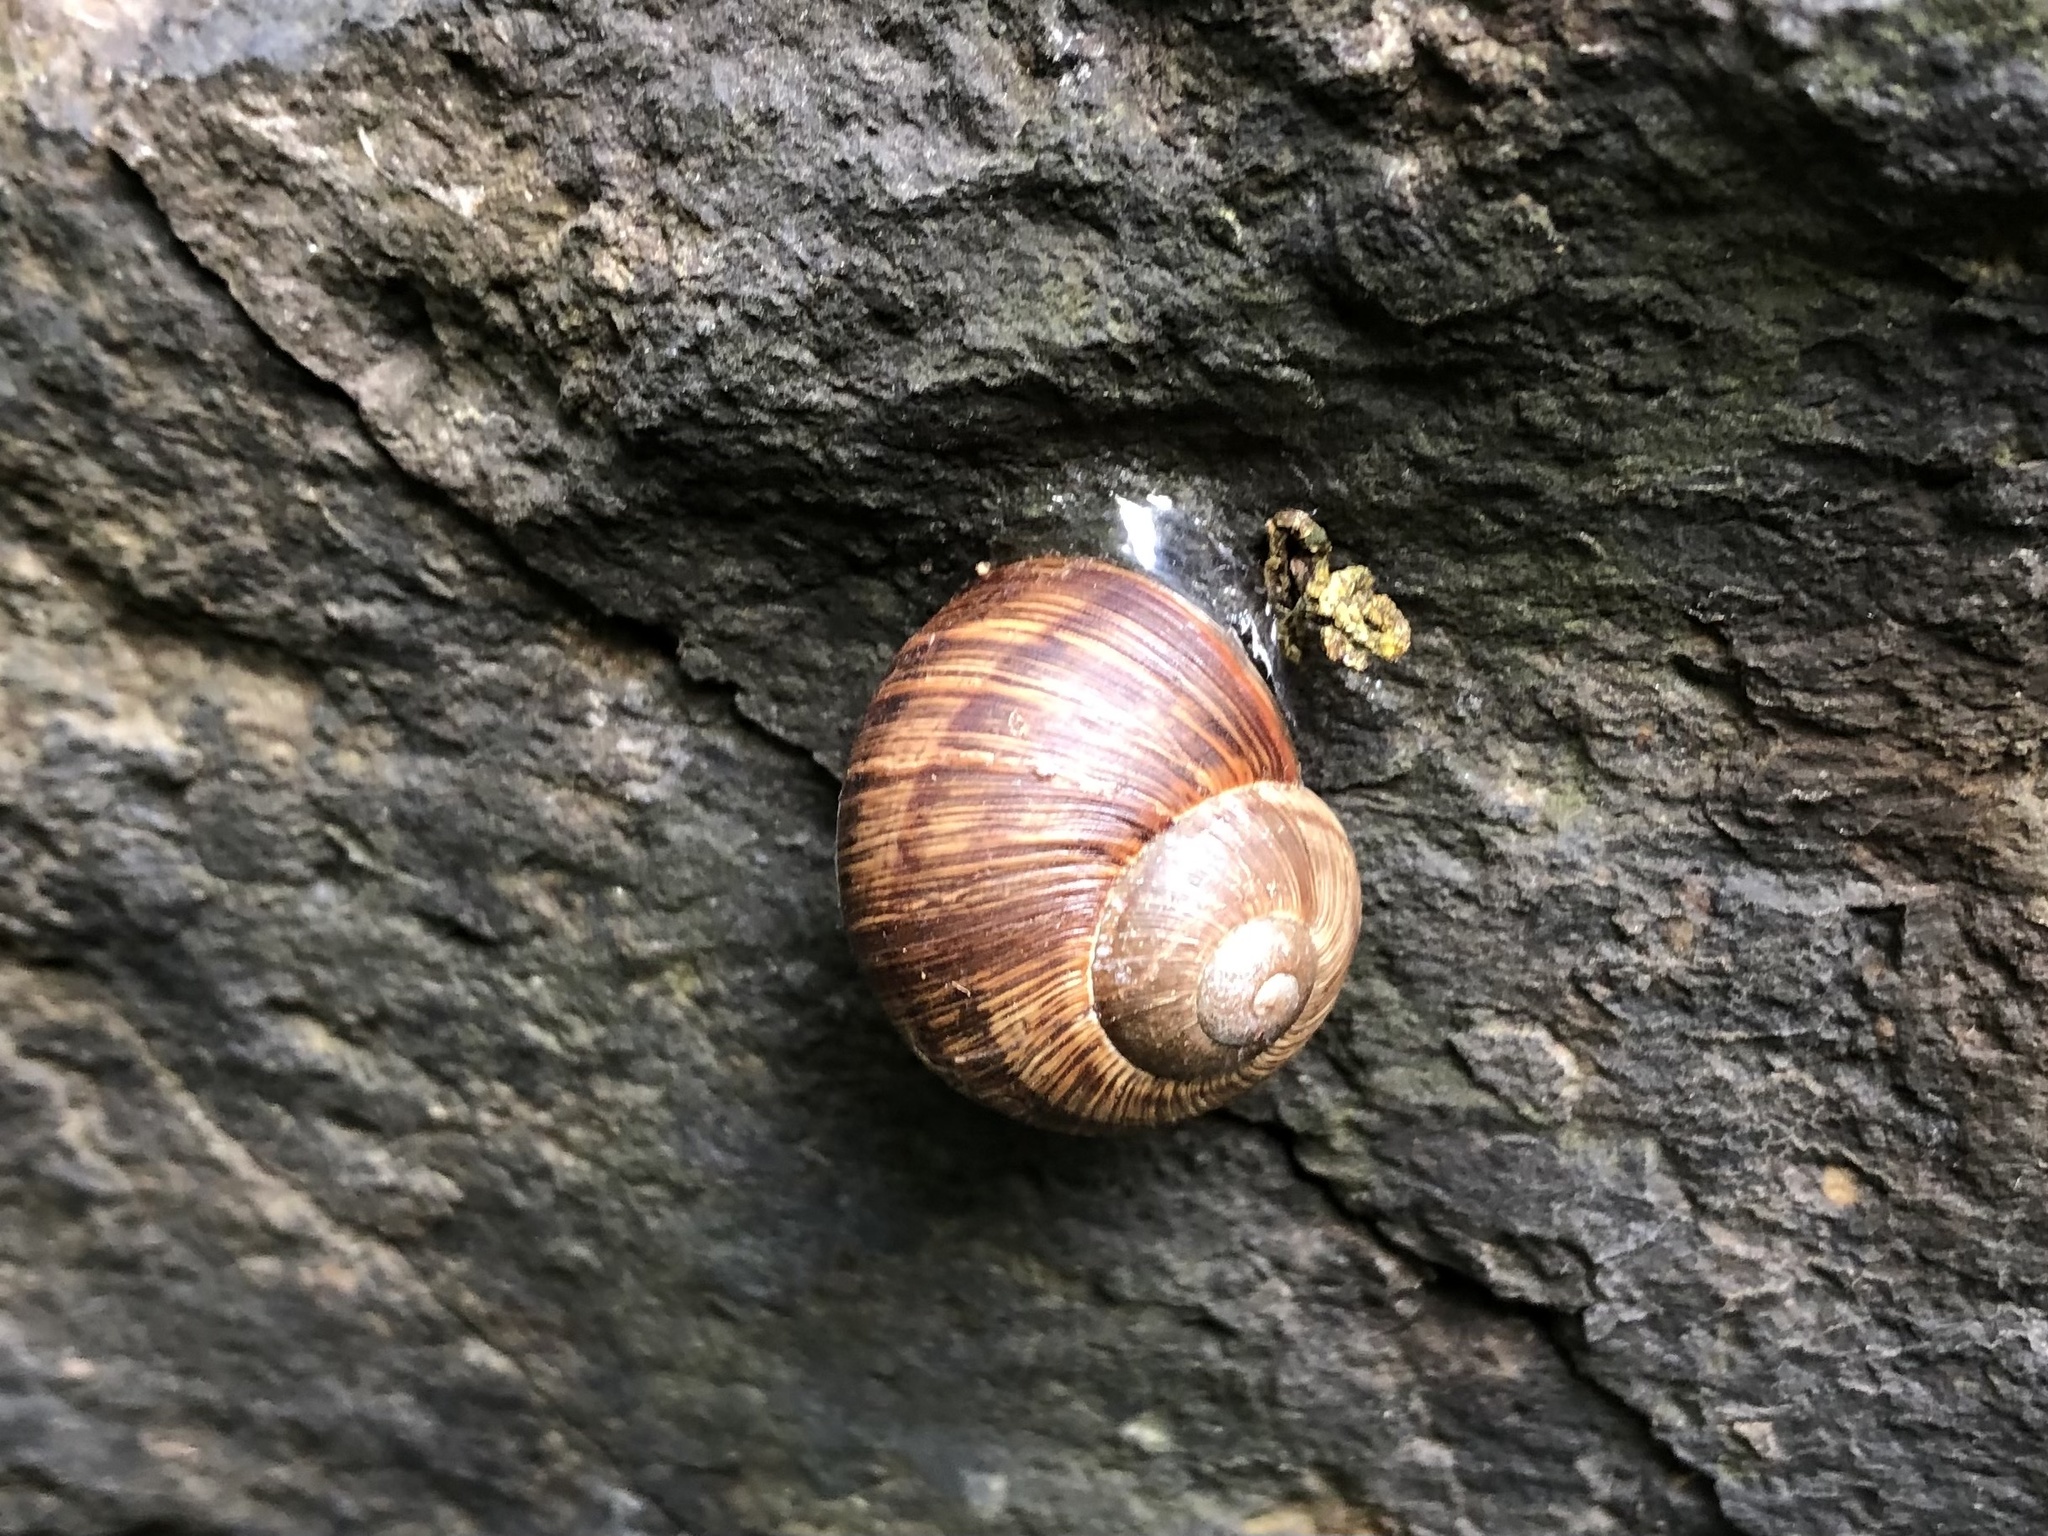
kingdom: Animalia
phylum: Mollusca
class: Gastropoda
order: Stylommatophora
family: Helicidae
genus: Helix
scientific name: Helix pomatia
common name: Roman snail
